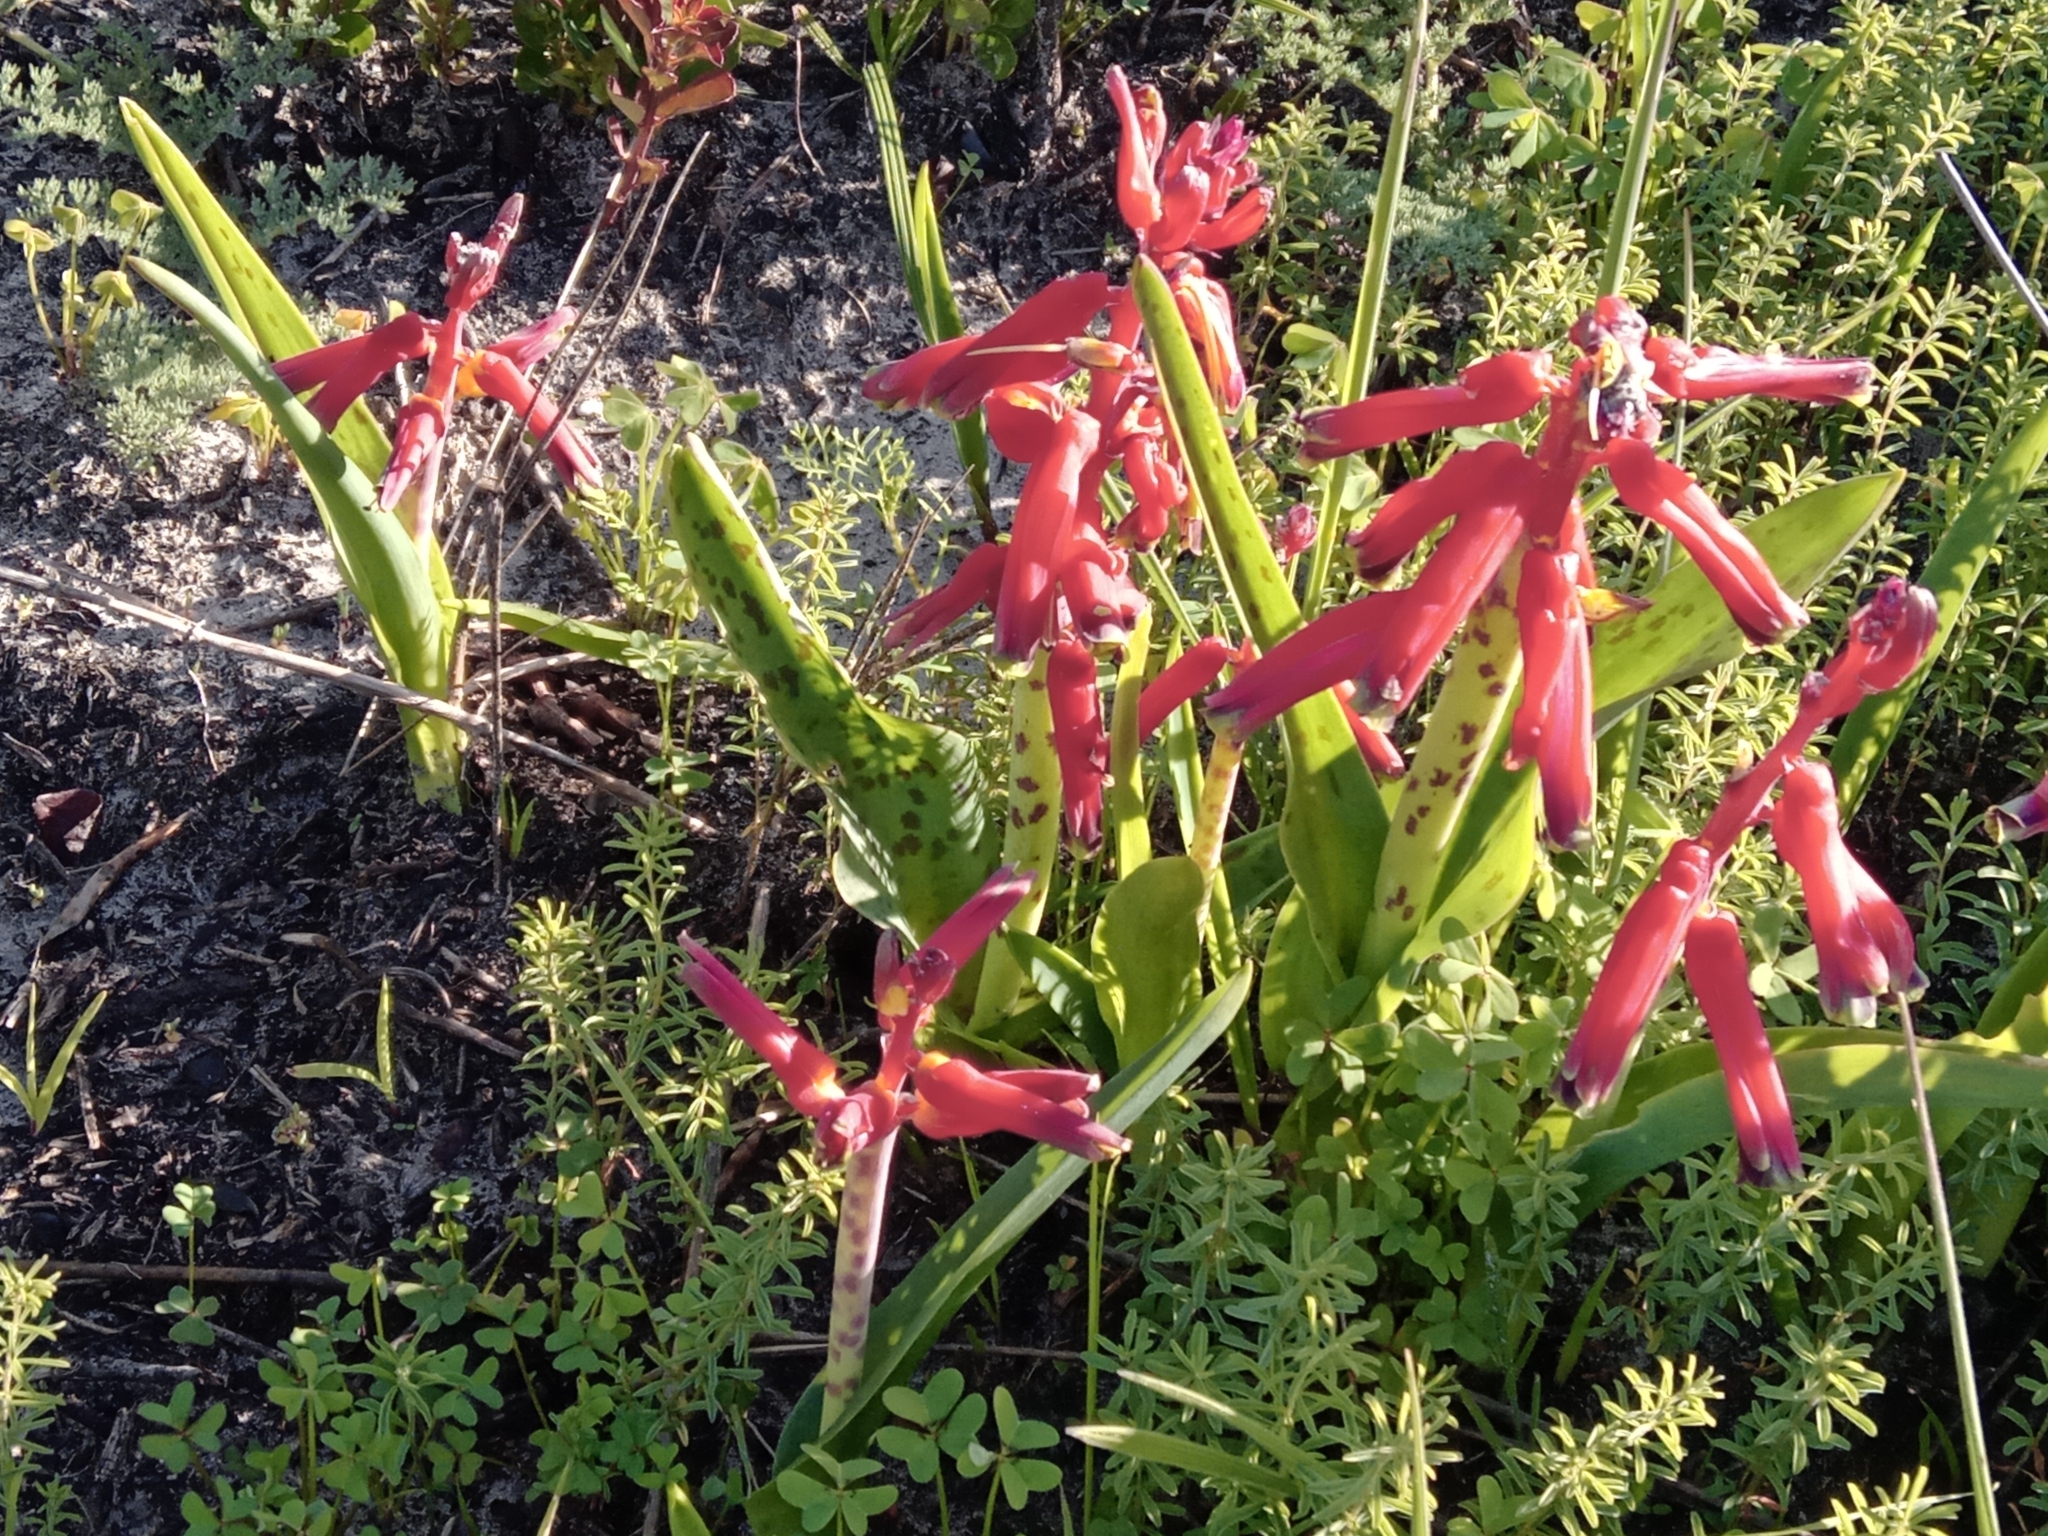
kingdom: Plantae
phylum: Tracheophyta
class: Liliopsida
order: Asparagales
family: Asparagaceae
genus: Lachenalia
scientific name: Lachenalia bulbifera
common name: Red lachenalia
